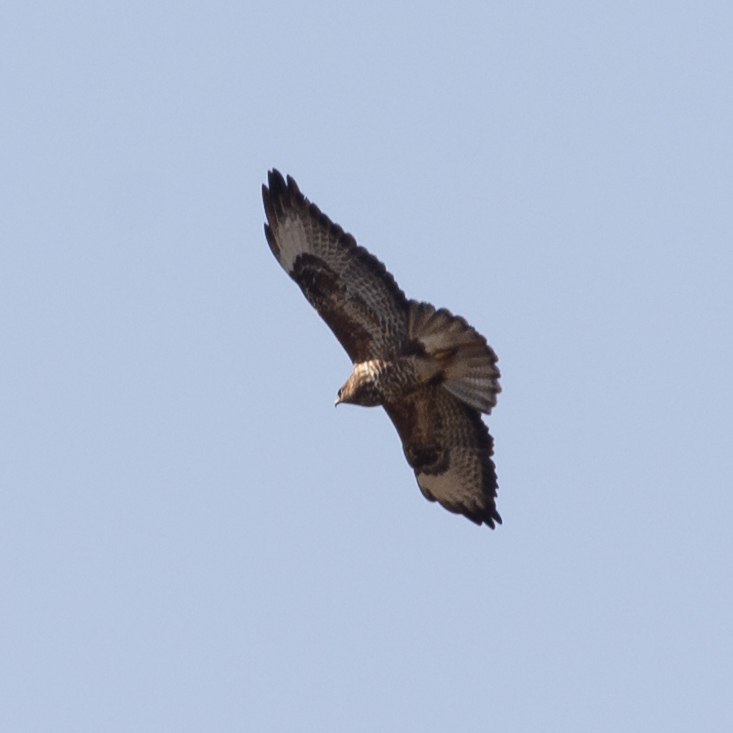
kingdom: Animalia
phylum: Chordata
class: Aves
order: Accipitriformes
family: Accipitridae
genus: Buteo
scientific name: Buteo buteo
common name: Common buzzard
